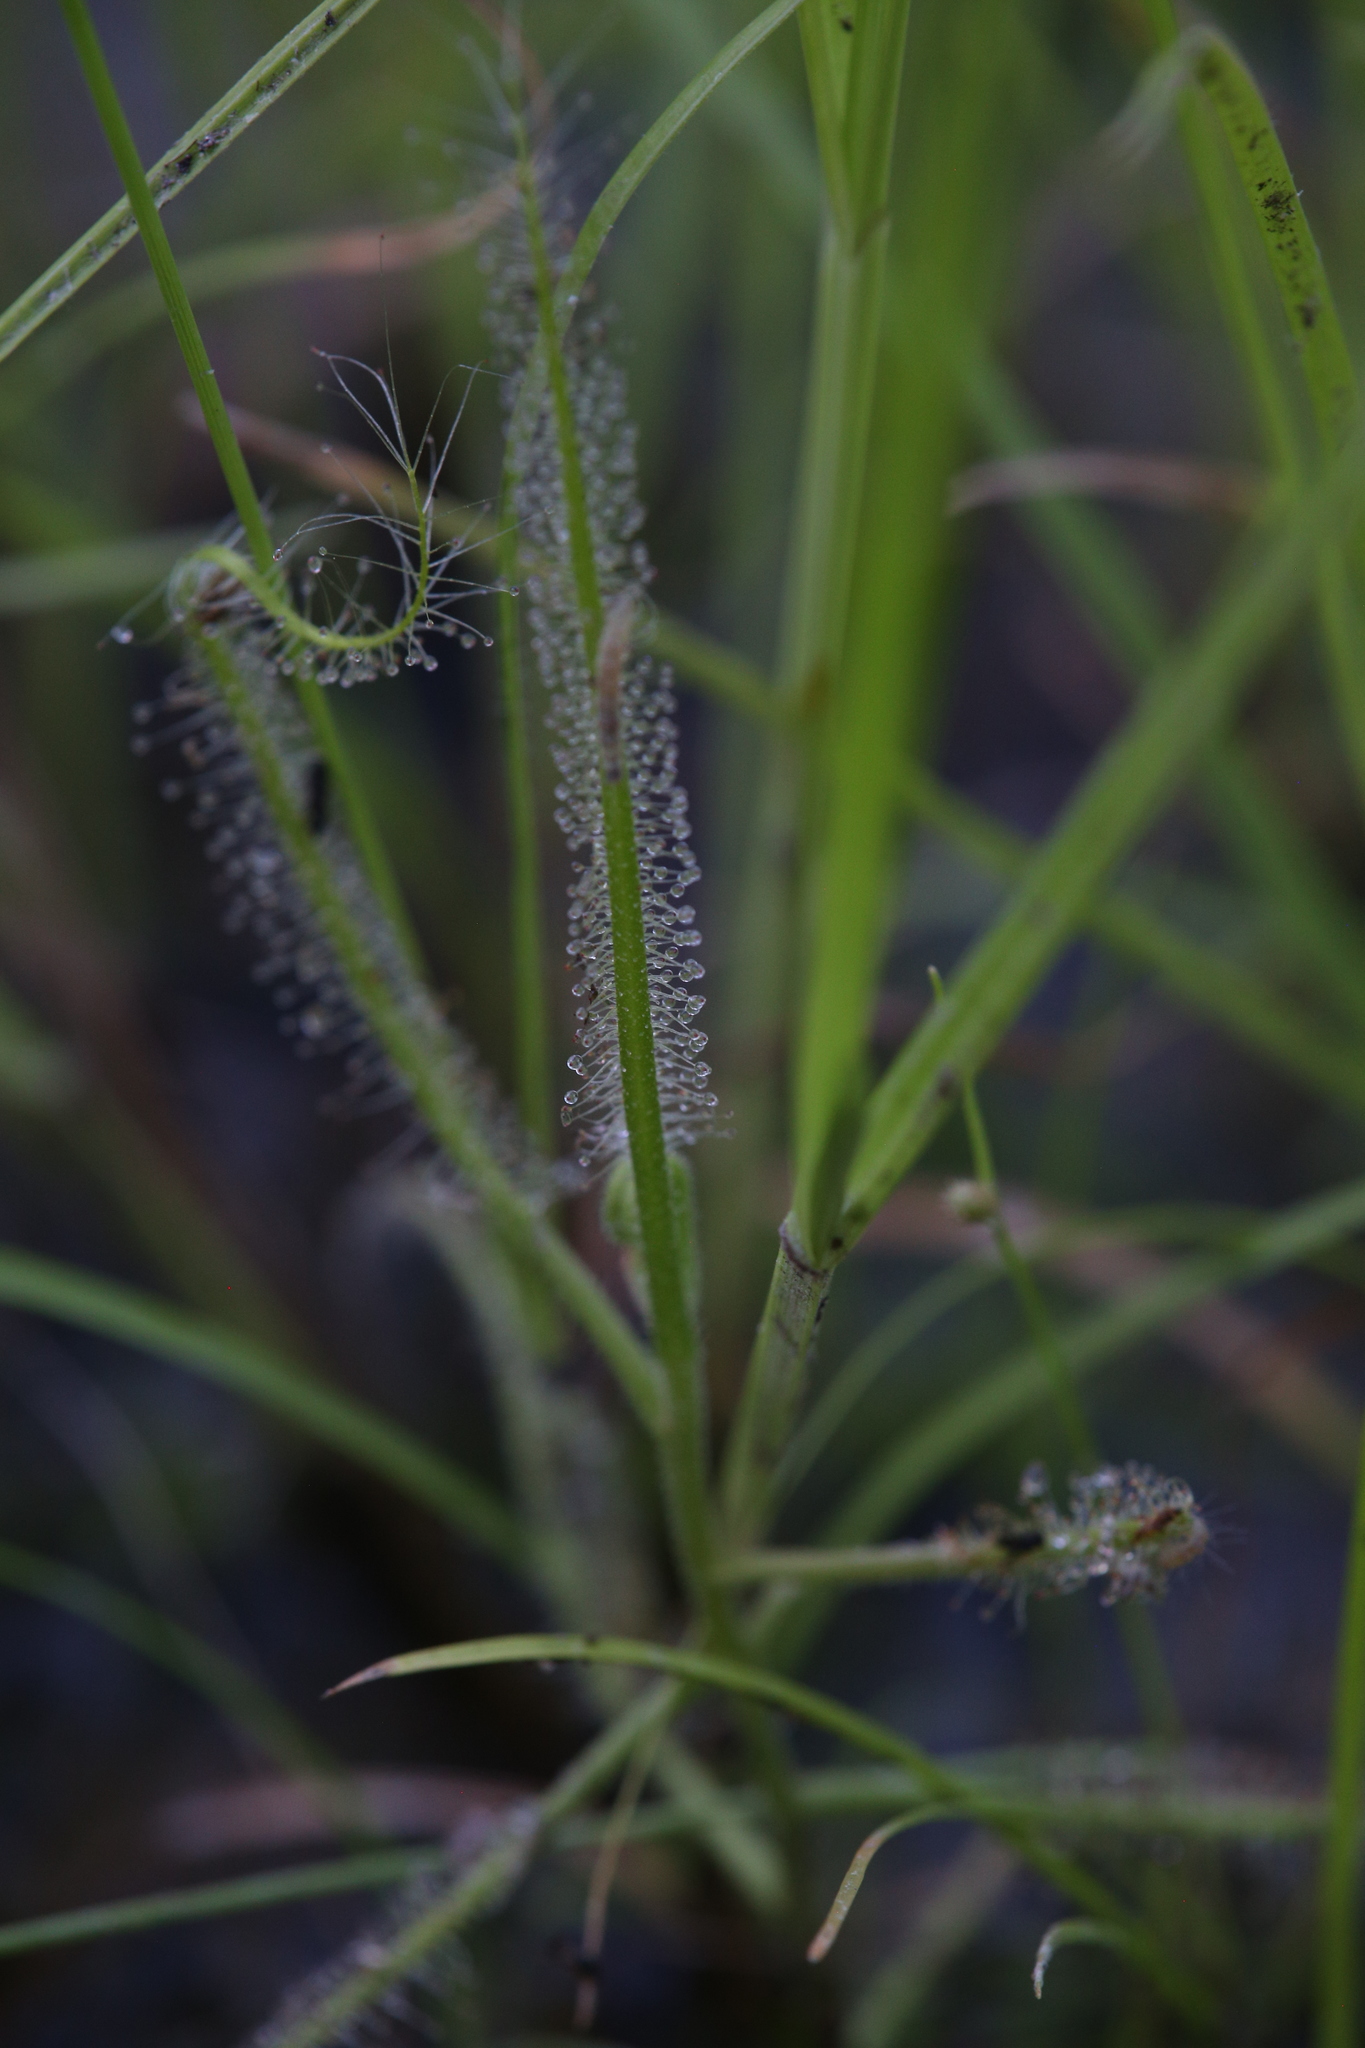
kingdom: Plantae
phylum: Tracheophyta
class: Magnoliopsida
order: Caryophyllales
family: Droseraceae
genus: Drosera
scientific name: Drosera indica
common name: Indian sundew
